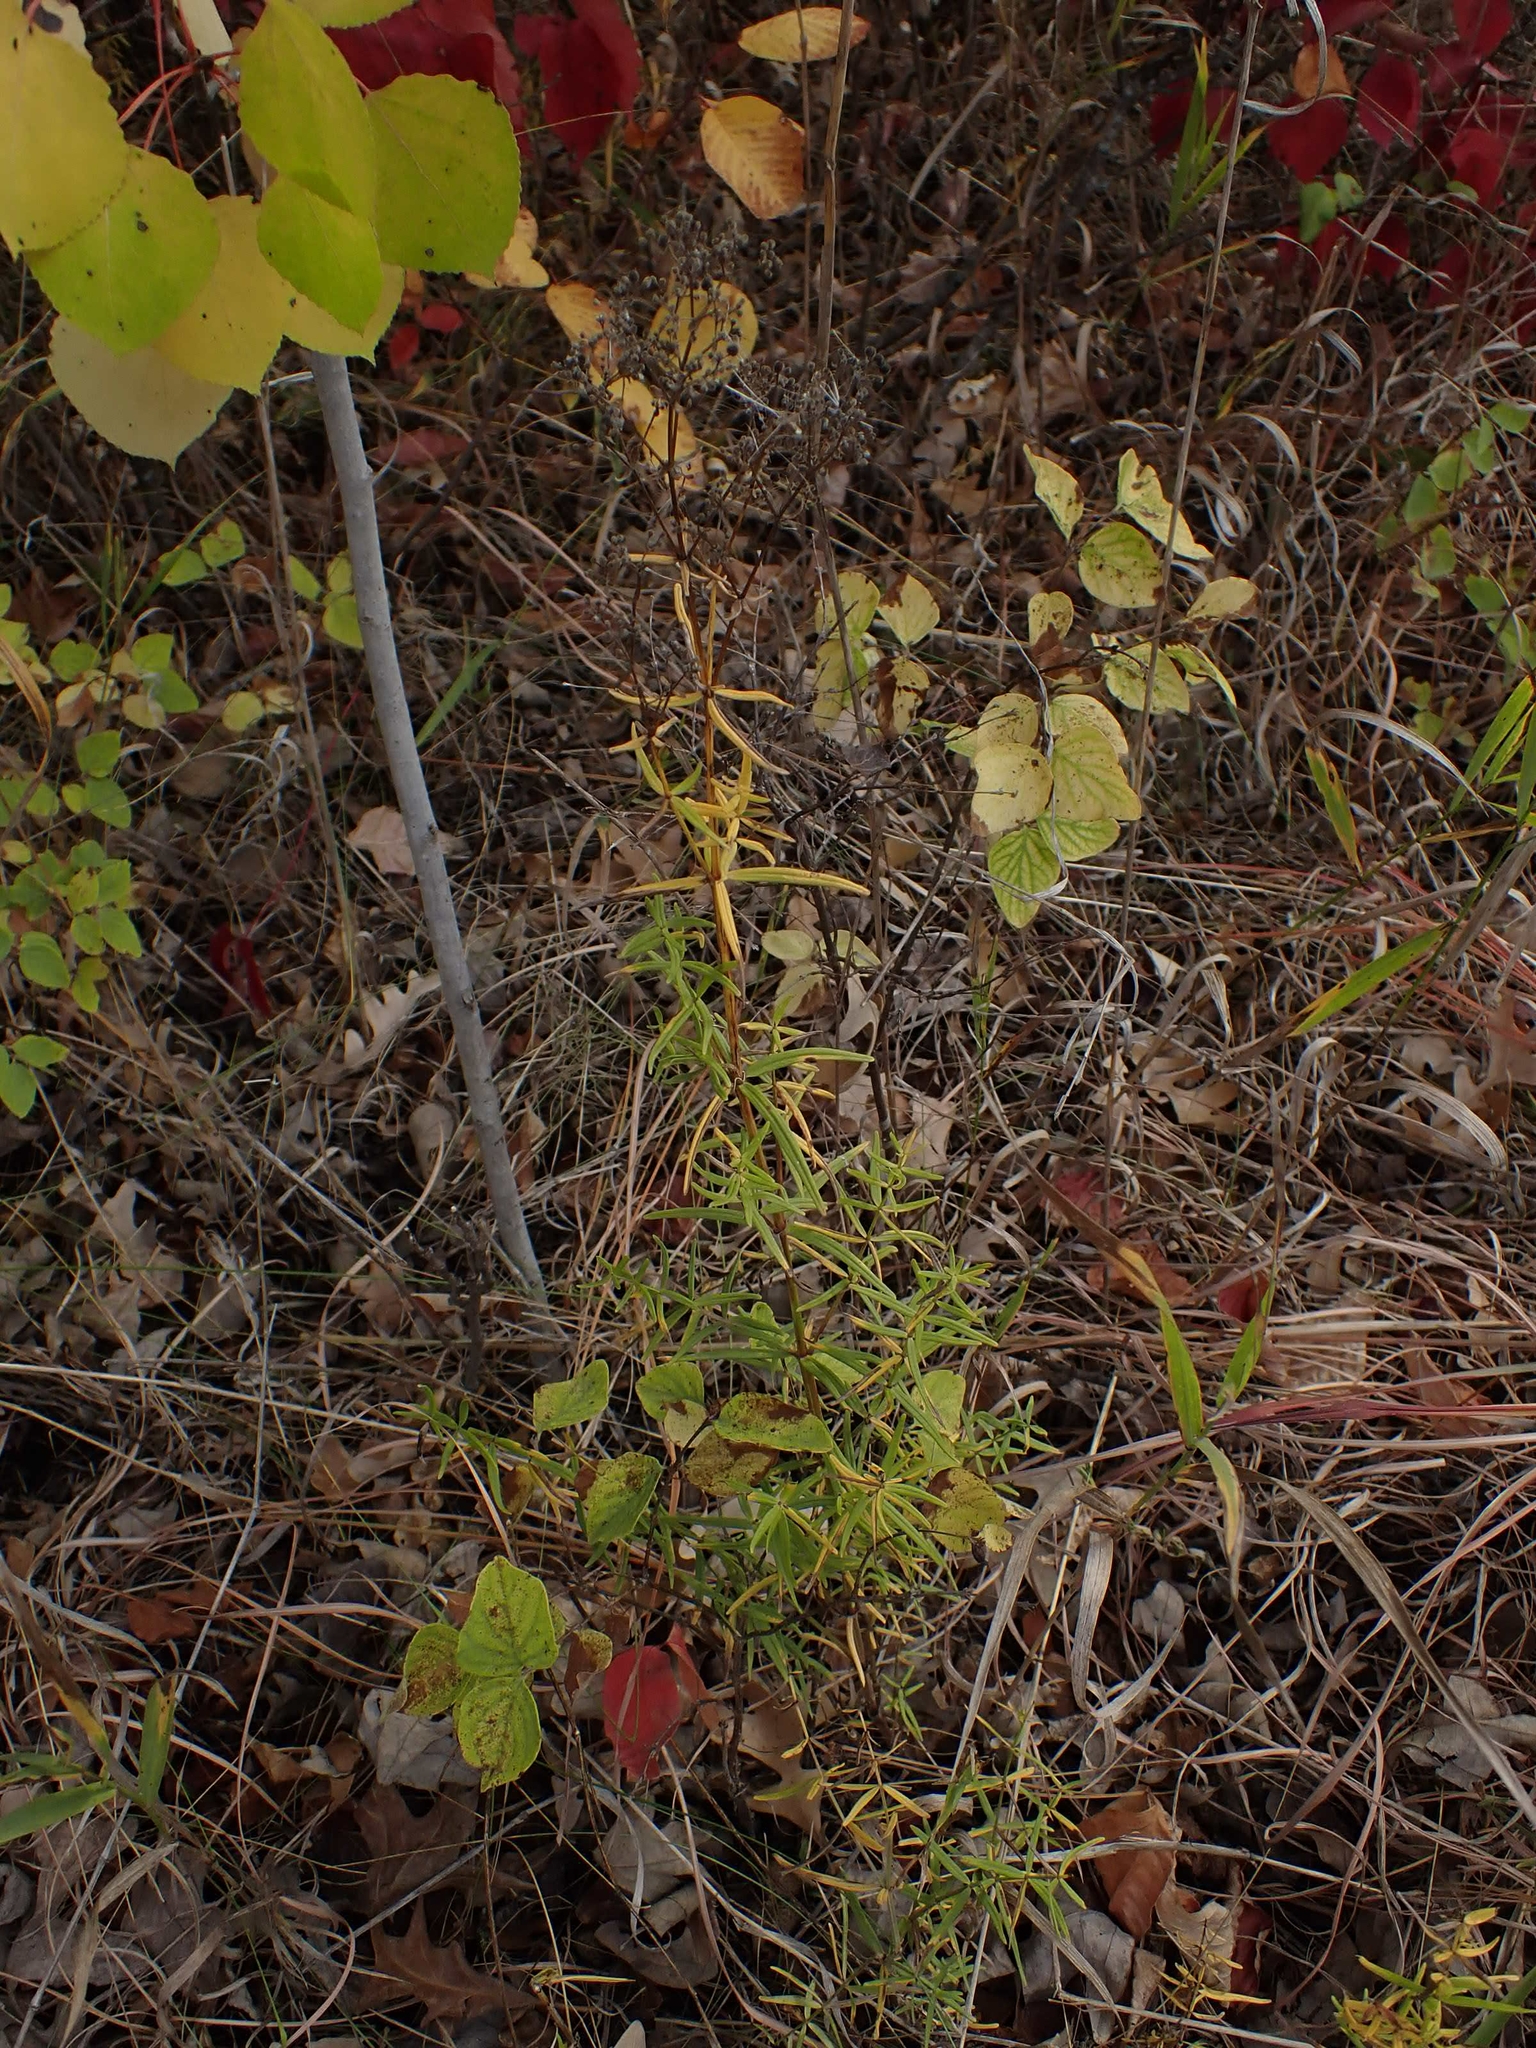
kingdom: Plantae
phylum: Tracheophyta
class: Magnoliopsida
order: Gentianales
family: Rubiaceae
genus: Galium
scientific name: Galium boreale
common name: Northern bedstraw
